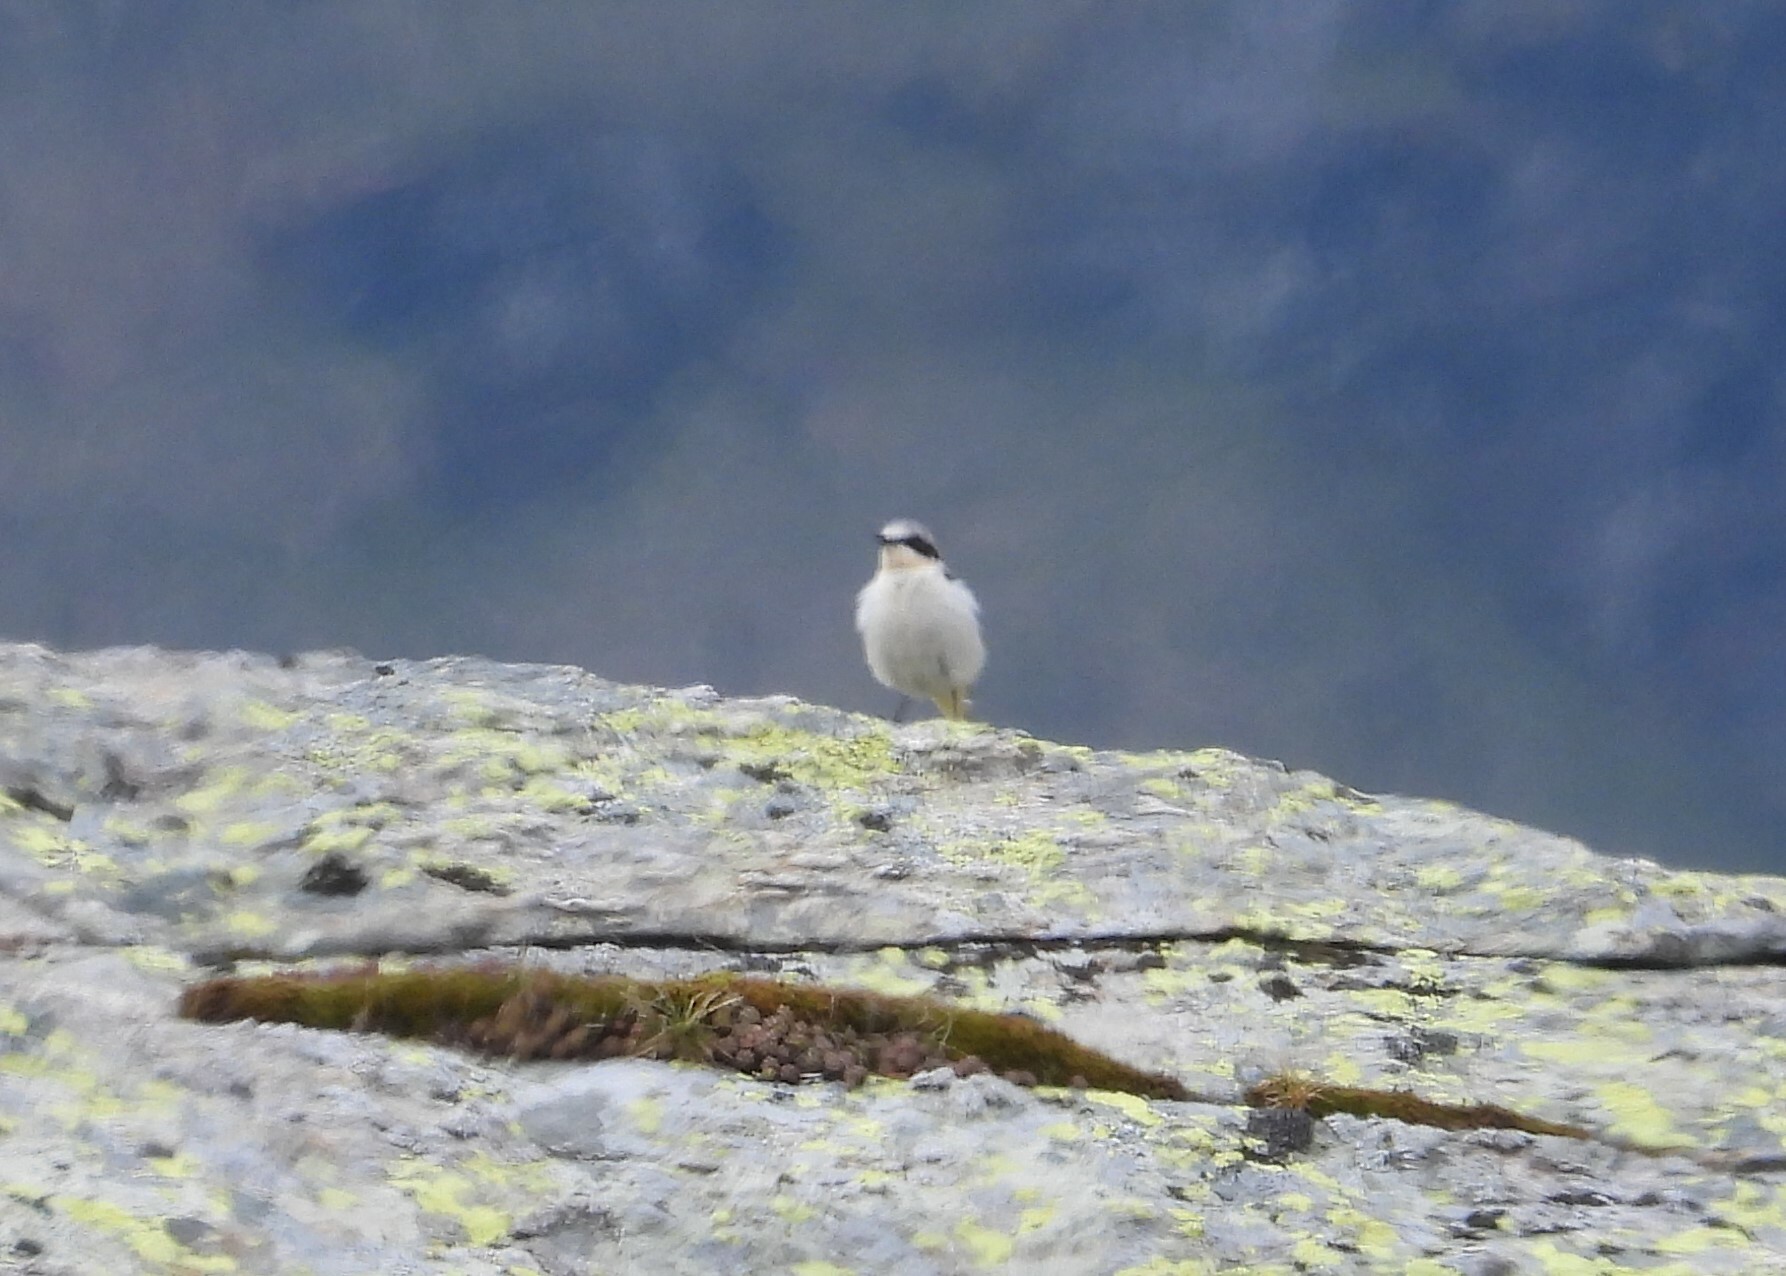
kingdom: Animalia
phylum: Chordata
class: Aves
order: Passeriformes
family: Muscicapidae
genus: Oenanthe
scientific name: Oenanthe oenanthe
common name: Northern wheatear
